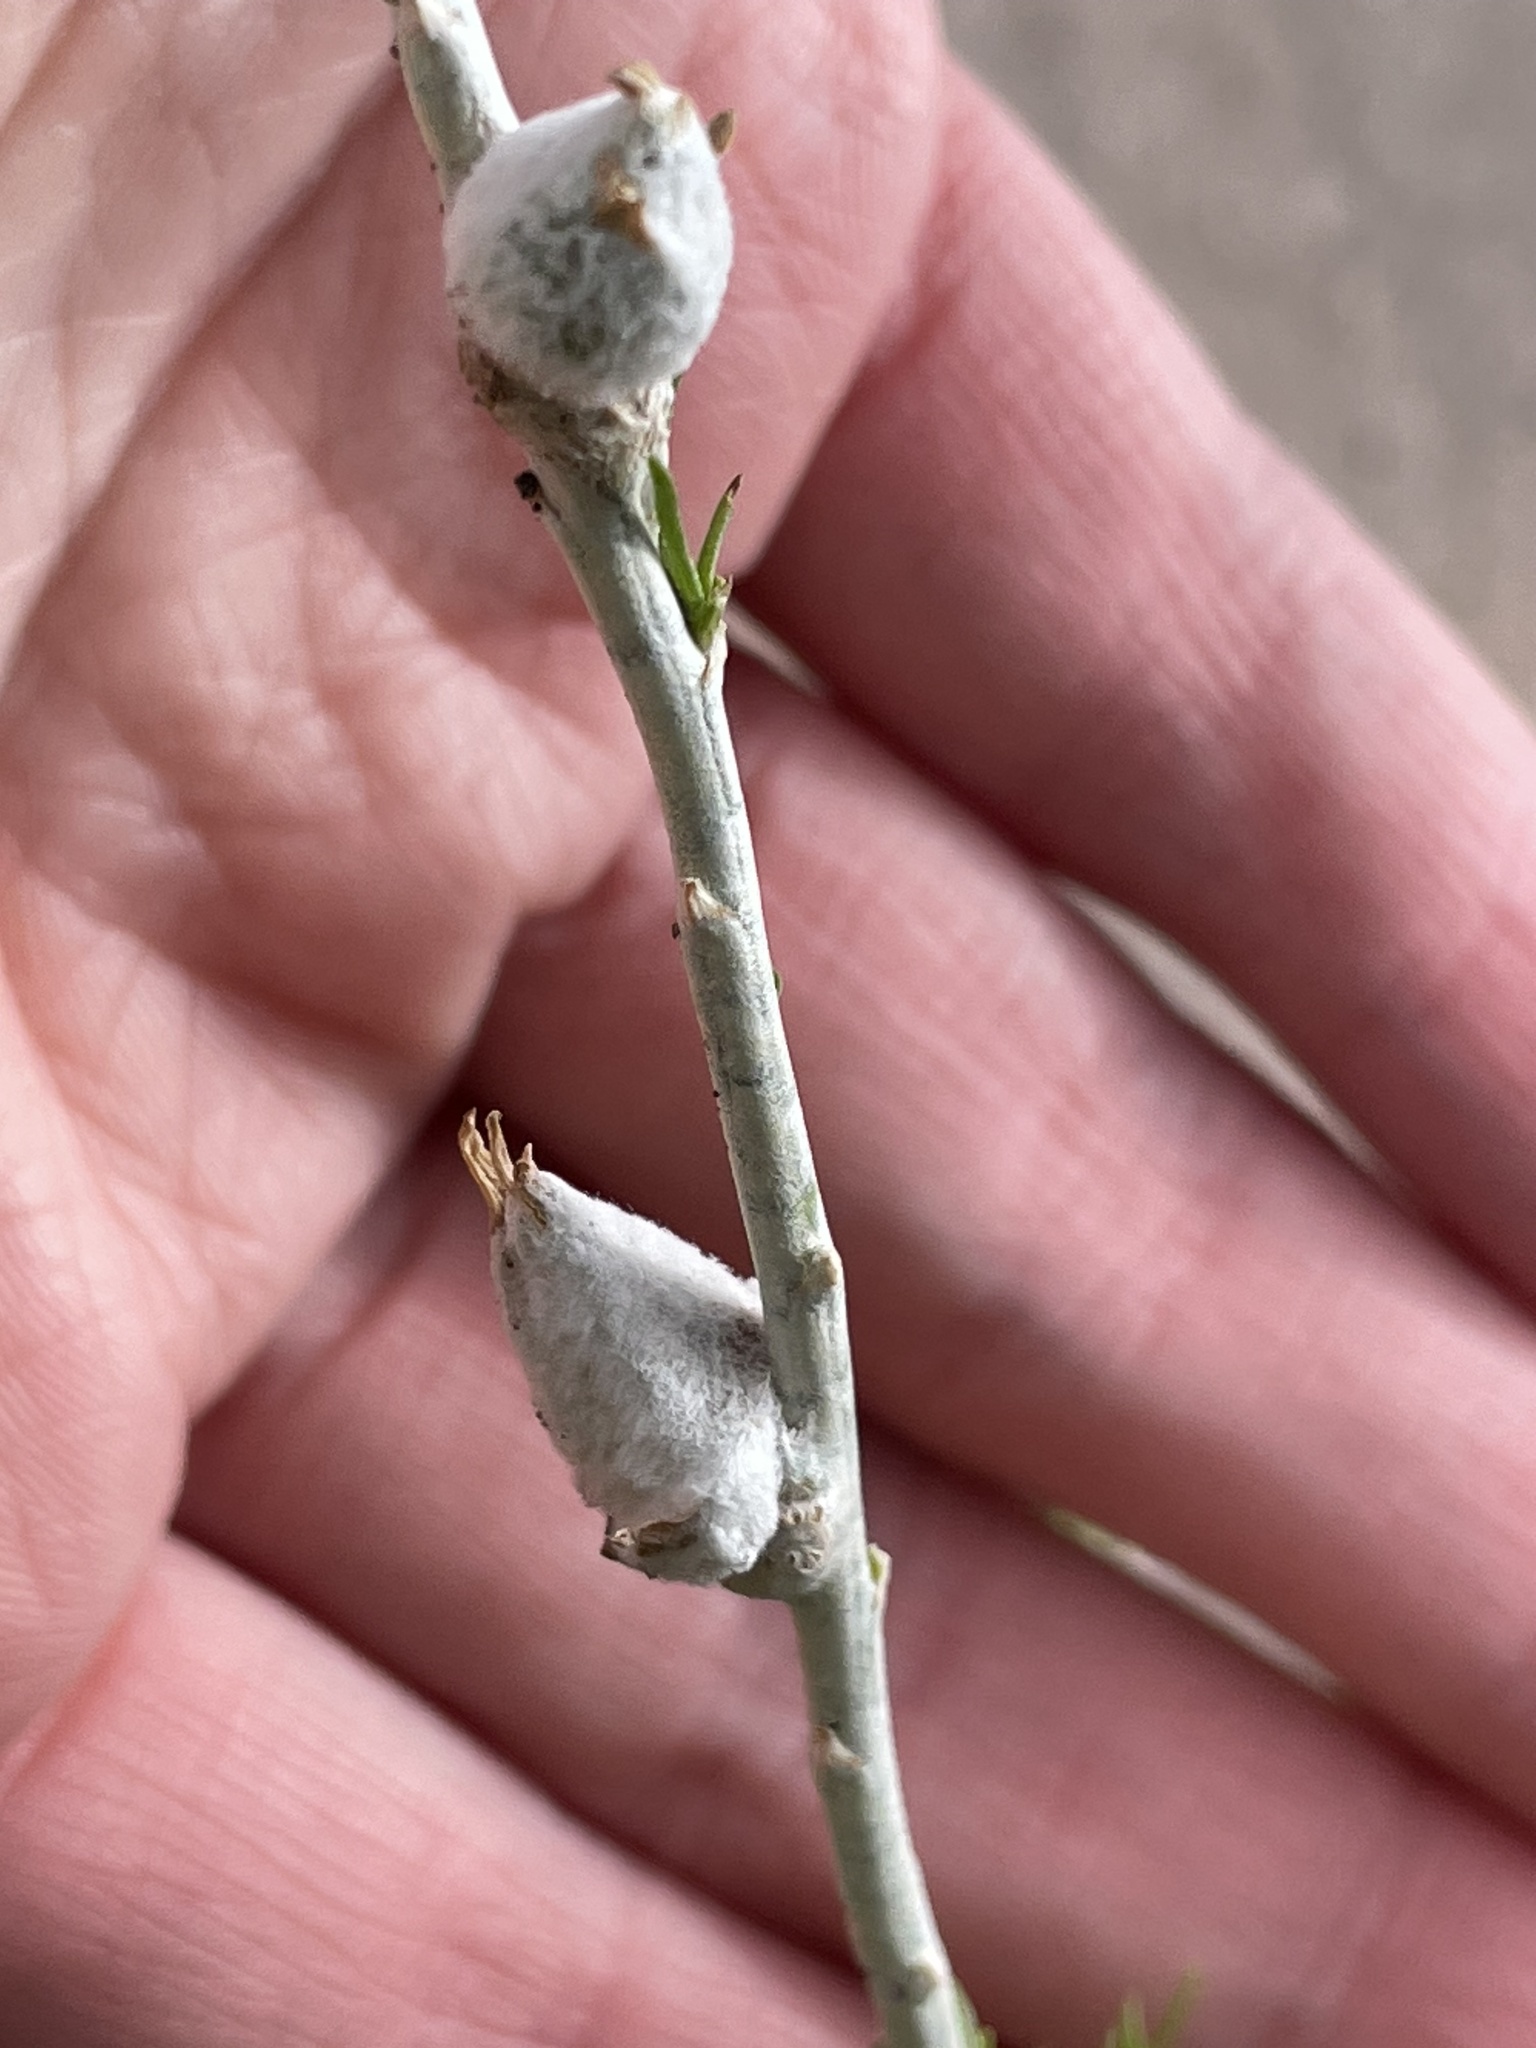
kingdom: Animalia
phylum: Arthropoda
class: Insecta
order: Diptera
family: Tephritidae
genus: Aciurina
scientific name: Aciurina bigeloviae
